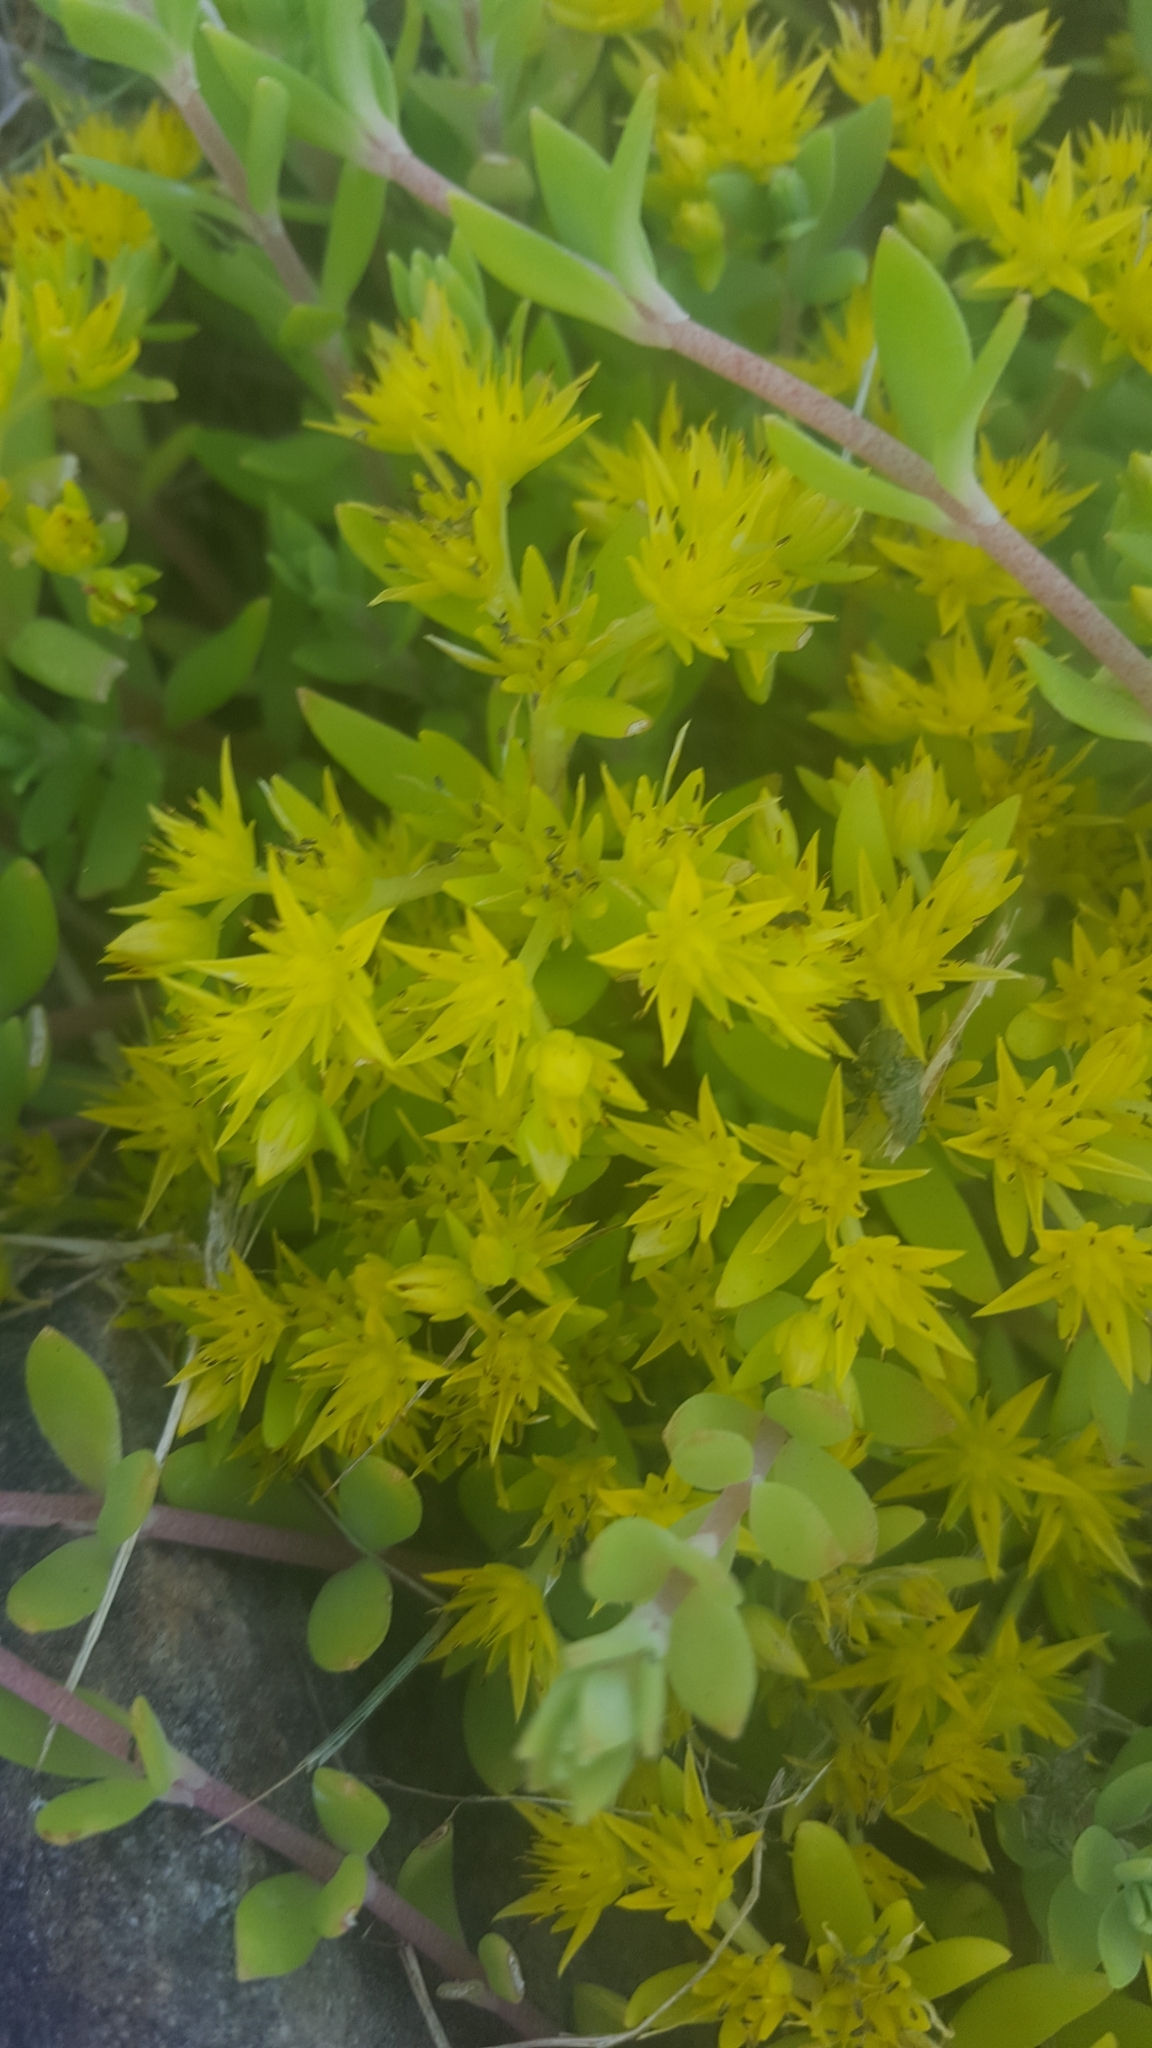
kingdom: Plantae
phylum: Tracheophyta
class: Magnoliopsida
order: Saxifragales
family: Crassulaceae
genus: Sedum
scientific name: Sedum sarmentosum
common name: Stringy stonecrop
